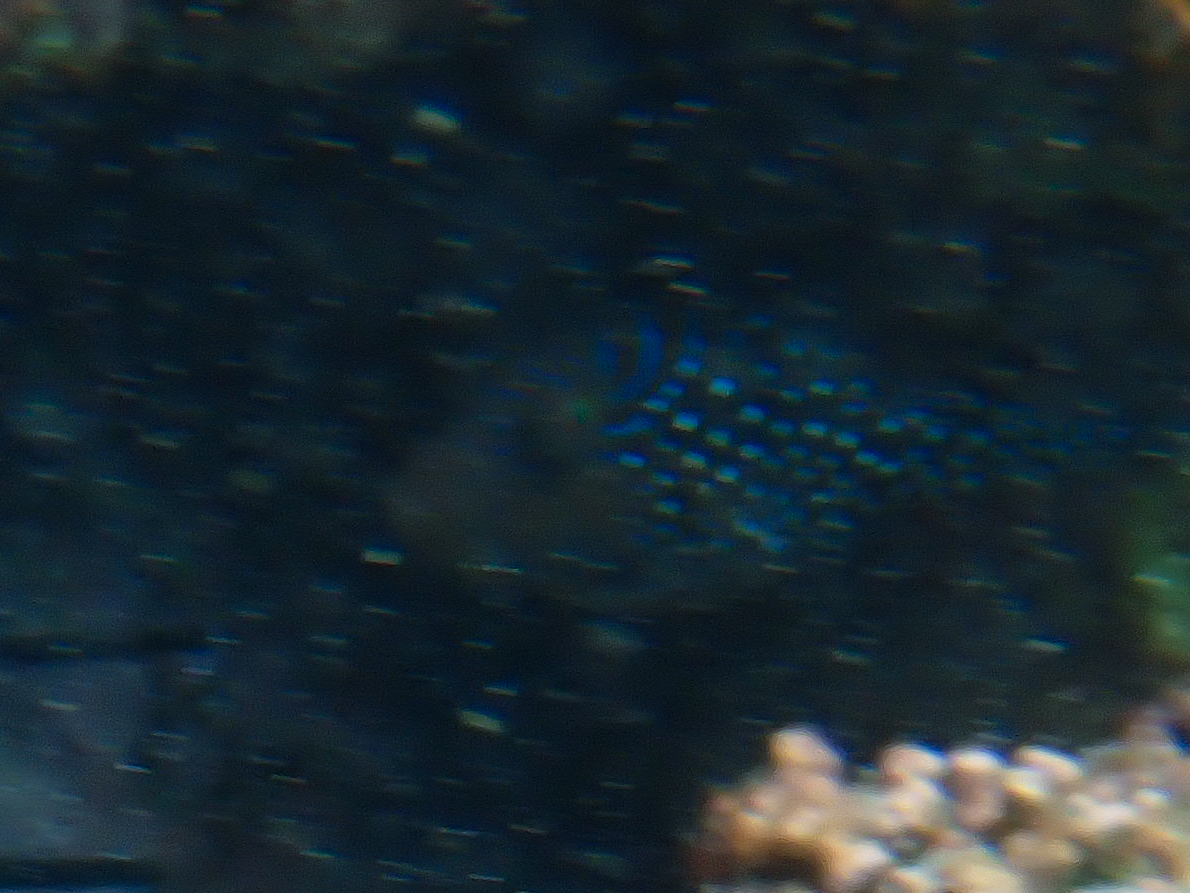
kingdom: Animalia
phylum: Chordata
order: Tetraodontiformes
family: Tetraodontidae
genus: Canthigaster
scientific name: Canthigaster amboinensis
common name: Ambon pufferfish
